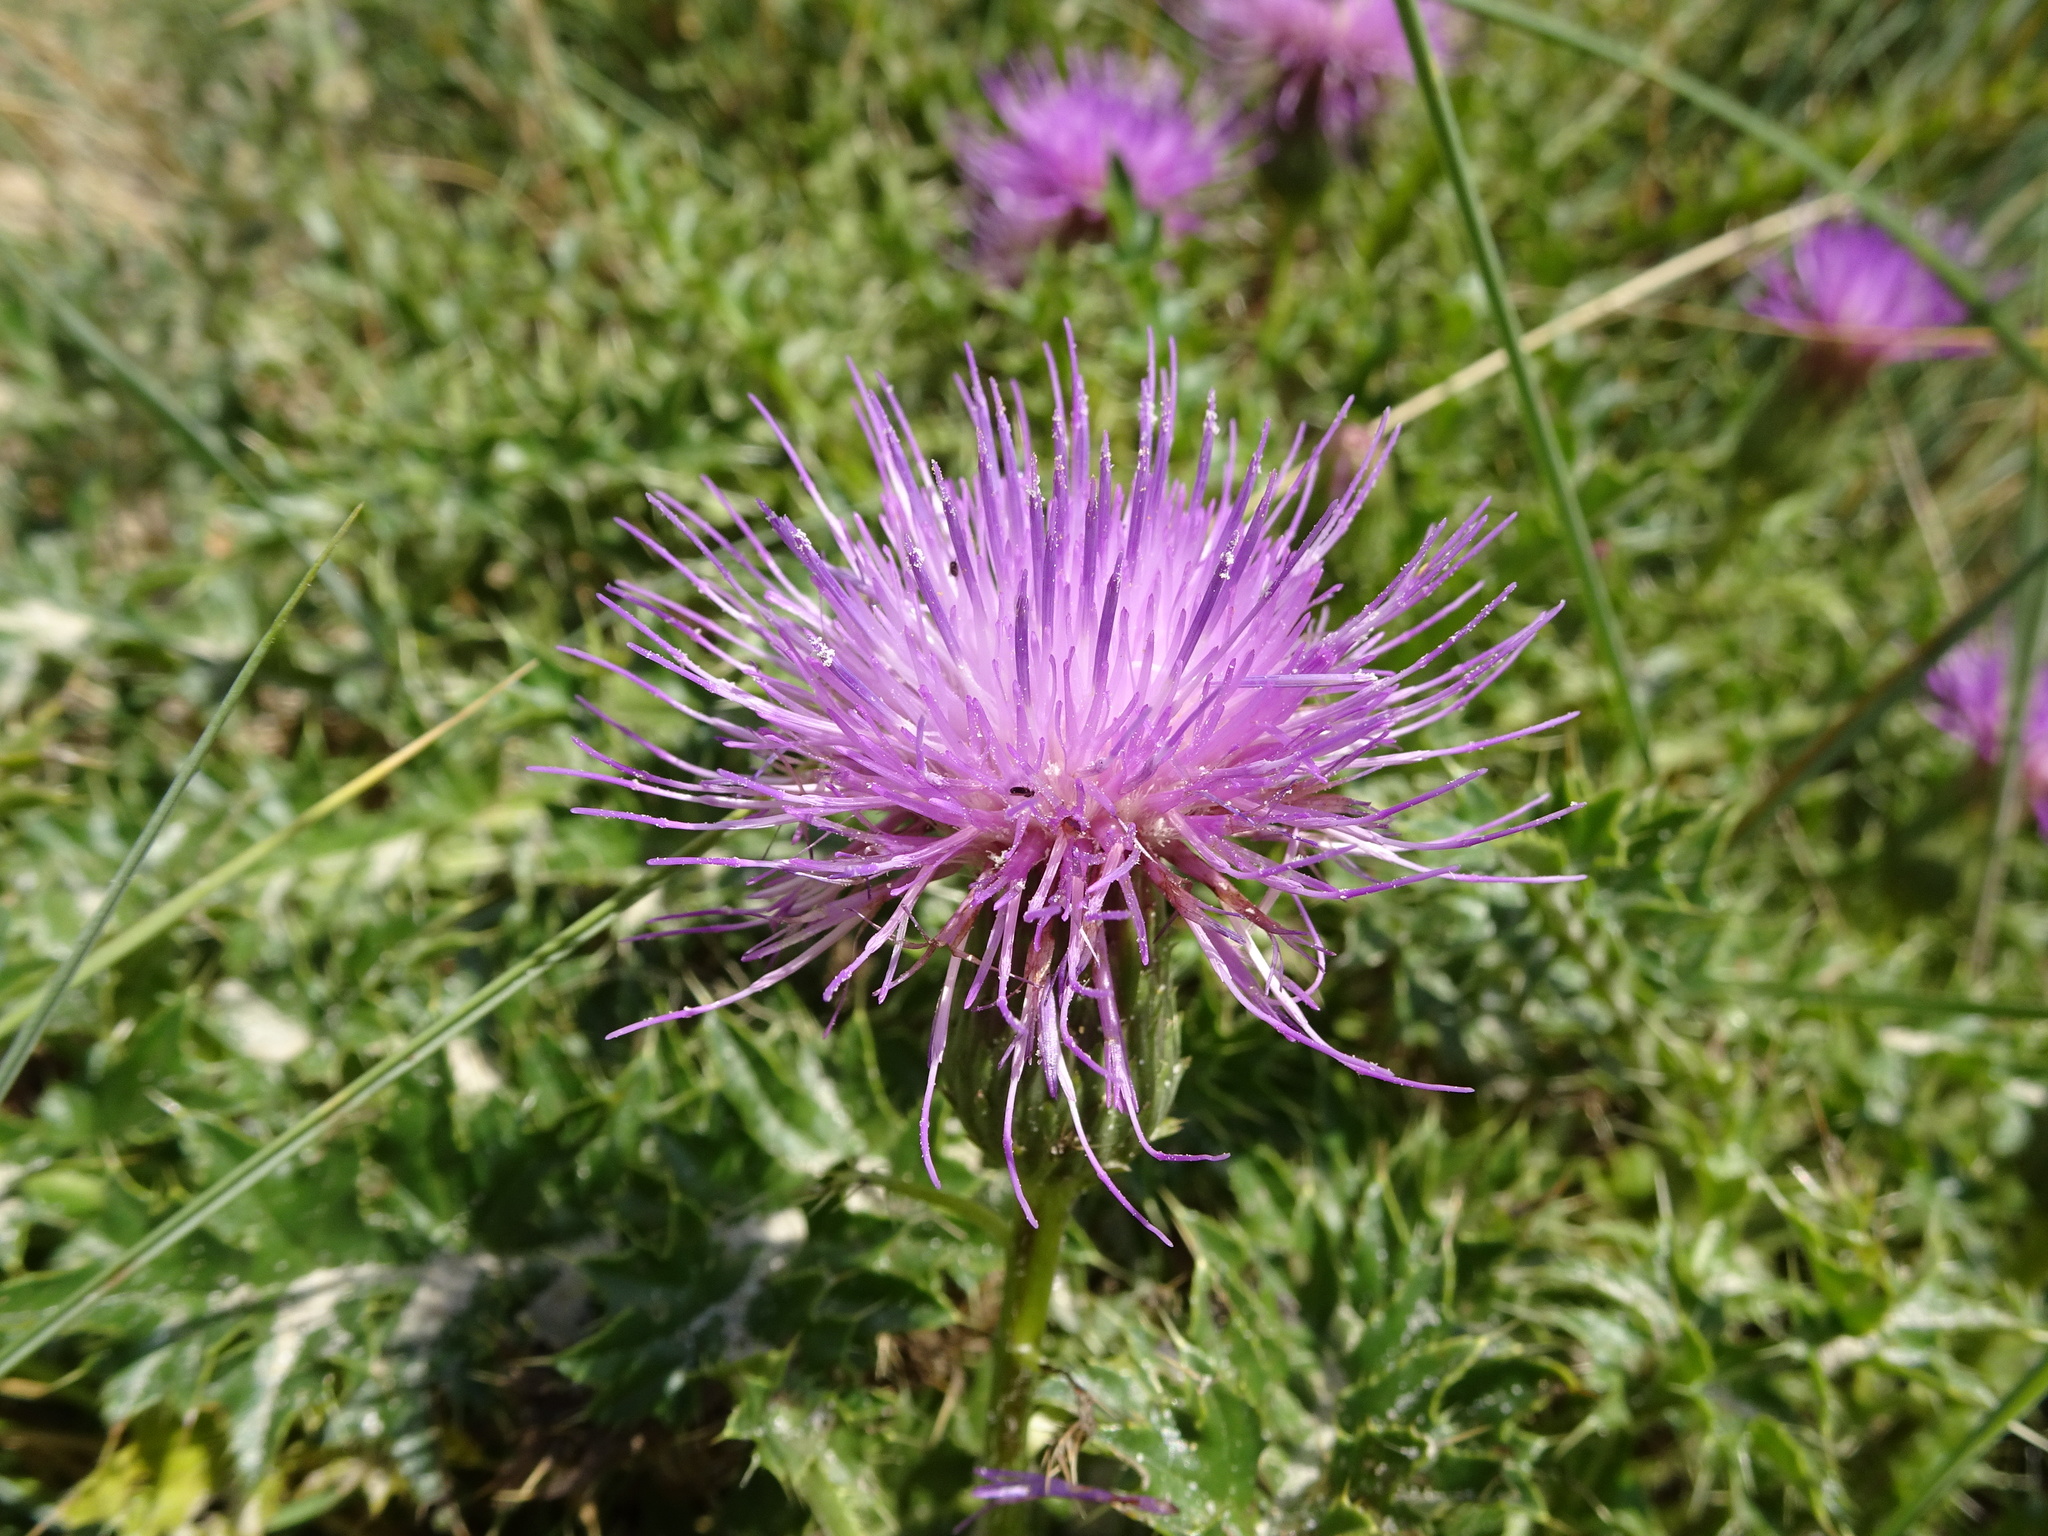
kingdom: Plantae
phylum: Tracheophyta
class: Magnoliopsida
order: Asterales
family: Asteraceae
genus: Cirsium
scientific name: Cirsium acaulon
